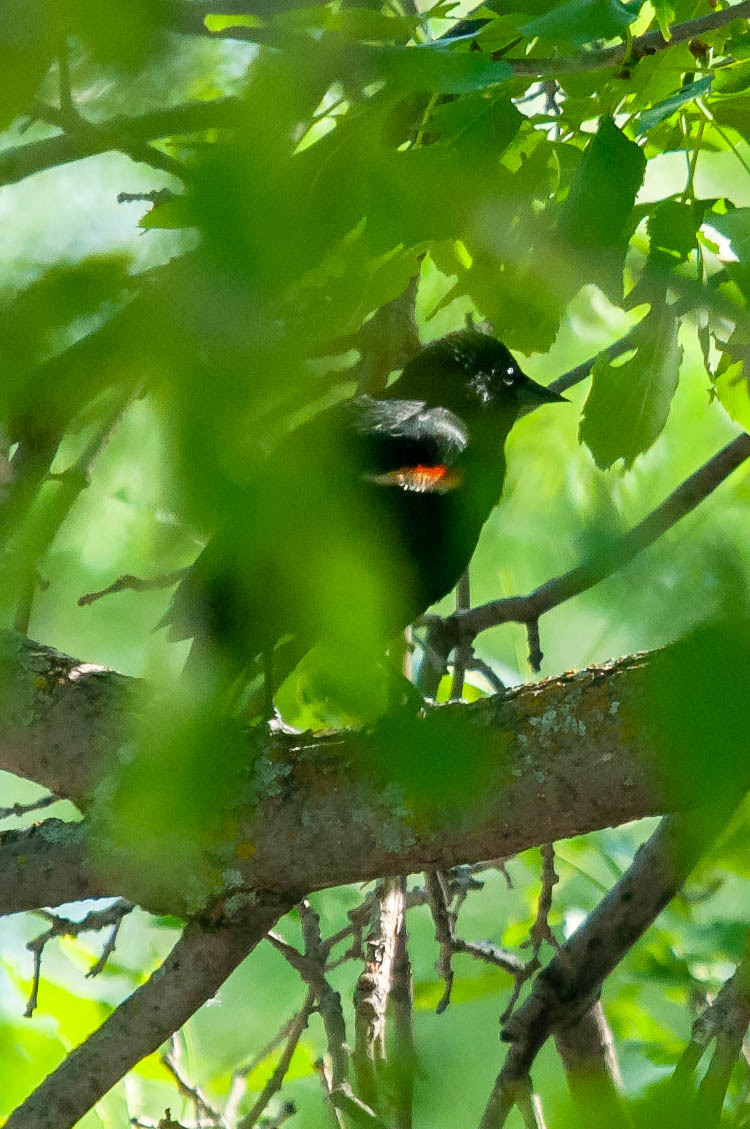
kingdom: Animalia
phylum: Chordata
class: Aves
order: Passeriformes
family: Icteridae
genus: Agelaius
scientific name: Agelaius phoeniceus
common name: Red-winged blackbird
